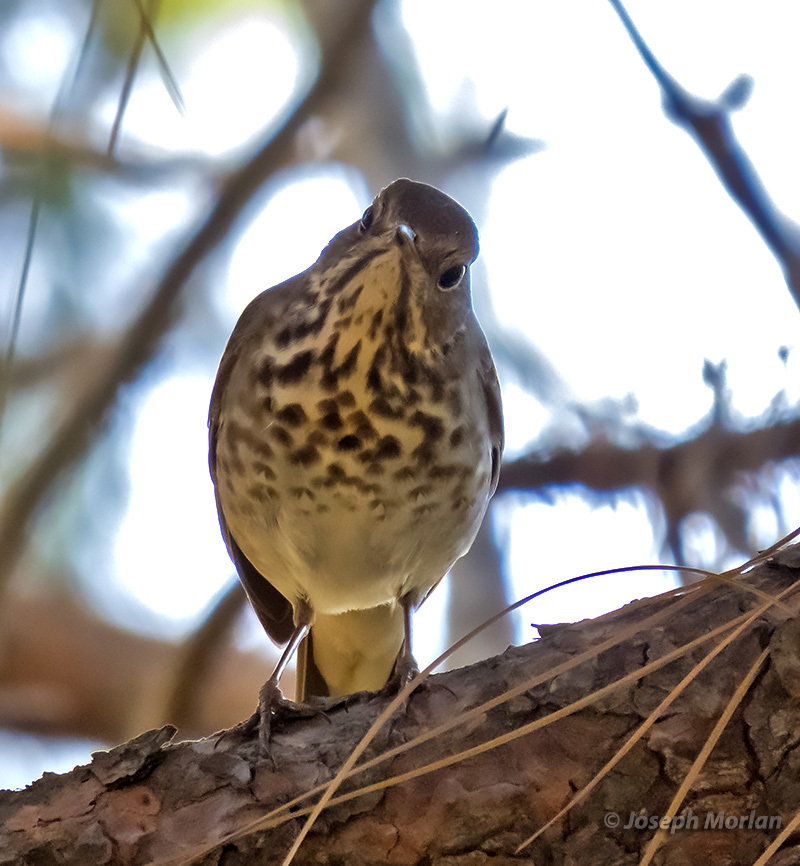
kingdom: Animalia
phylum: Chordata
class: Aves
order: Passeriformes
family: Turdidae
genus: Catharus
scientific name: Catharus guttatus
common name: Hermit thrush
